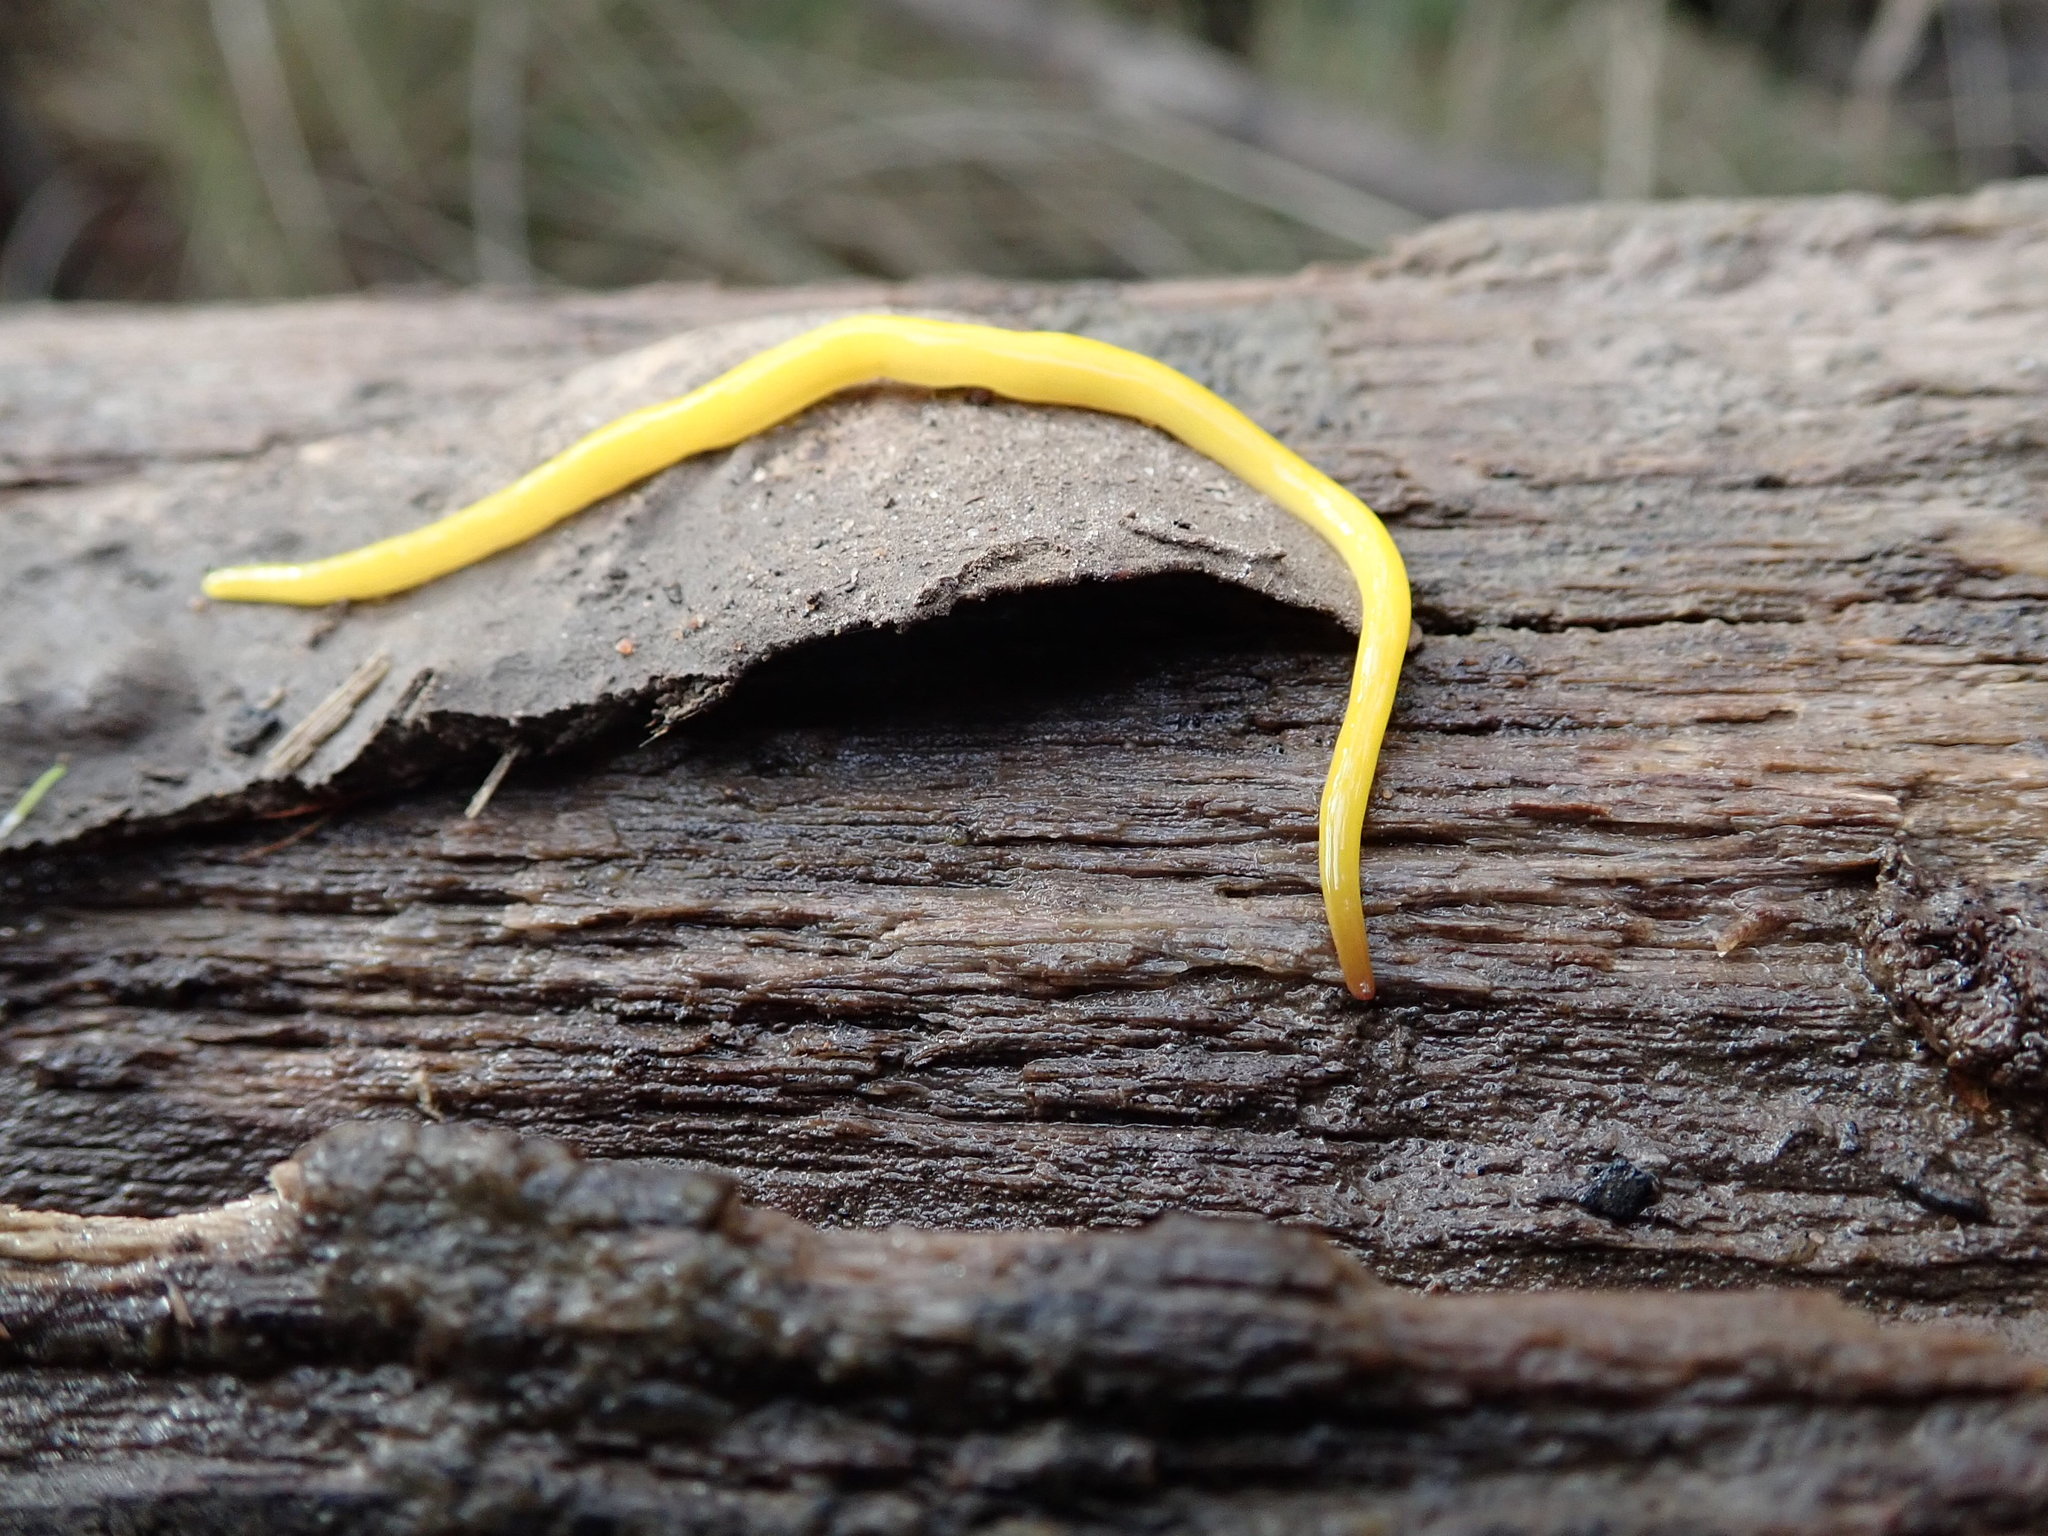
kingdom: Animalia
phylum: Platyhelminthes
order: Tricladida
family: Geoplanidae
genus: Fletchamia
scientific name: Fletchamia sugdeni
